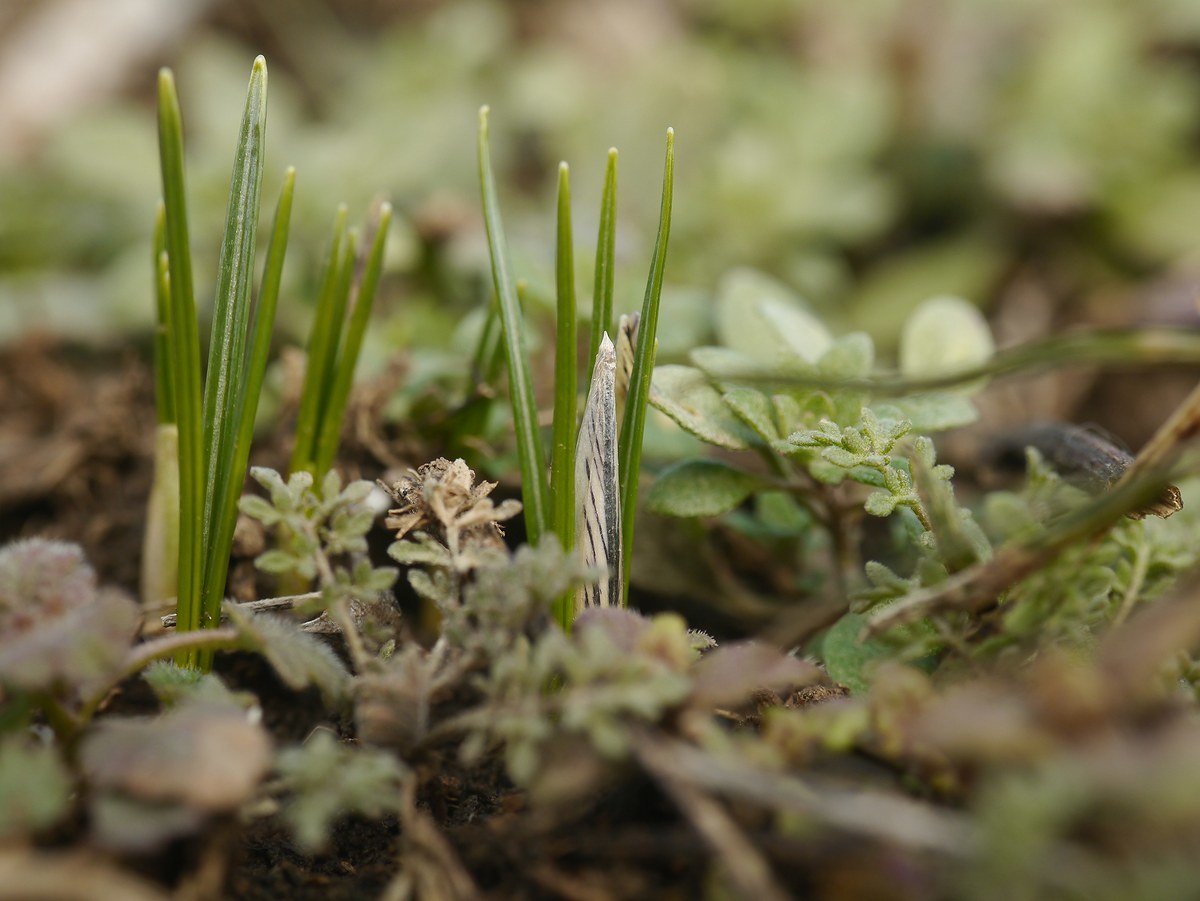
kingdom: Plantae
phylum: Tracheophyta
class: Liliopsida
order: Asparagales
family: Iridaceae
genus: Crocus
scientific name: Crocus reticulatus
